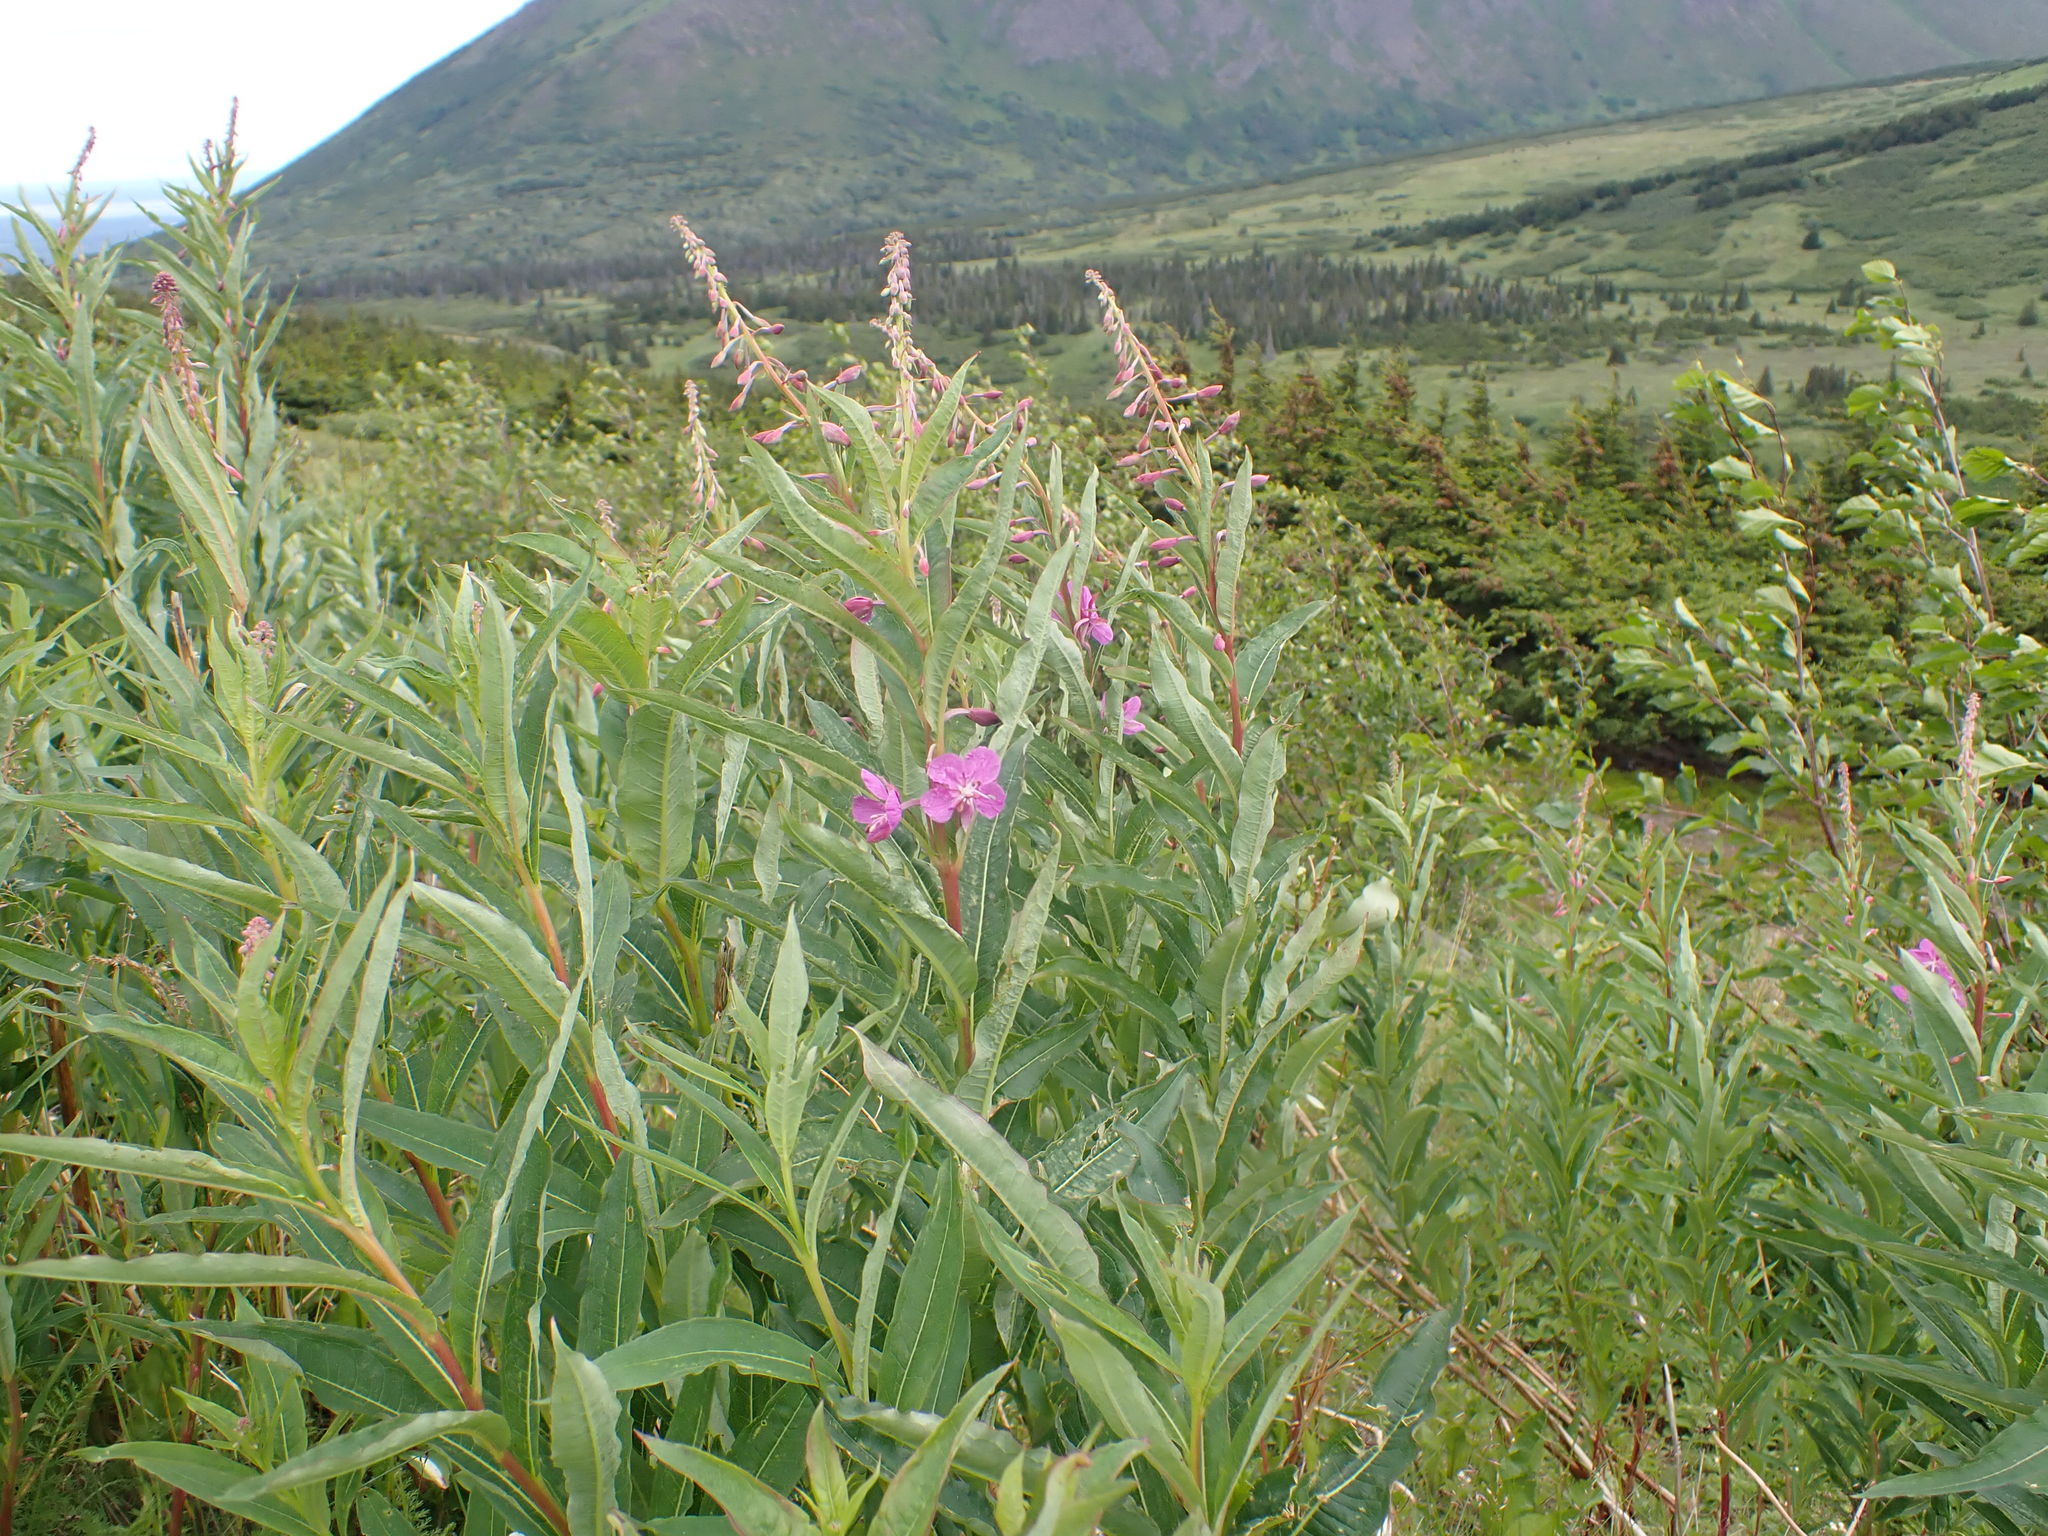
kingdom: Plantae
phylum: Tracheophyta
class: Magnoliopsida
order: Myrtales
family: Onagraceae
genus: Chamaenerion
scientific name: Chamaenerion angustifolium
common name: Fireweed
